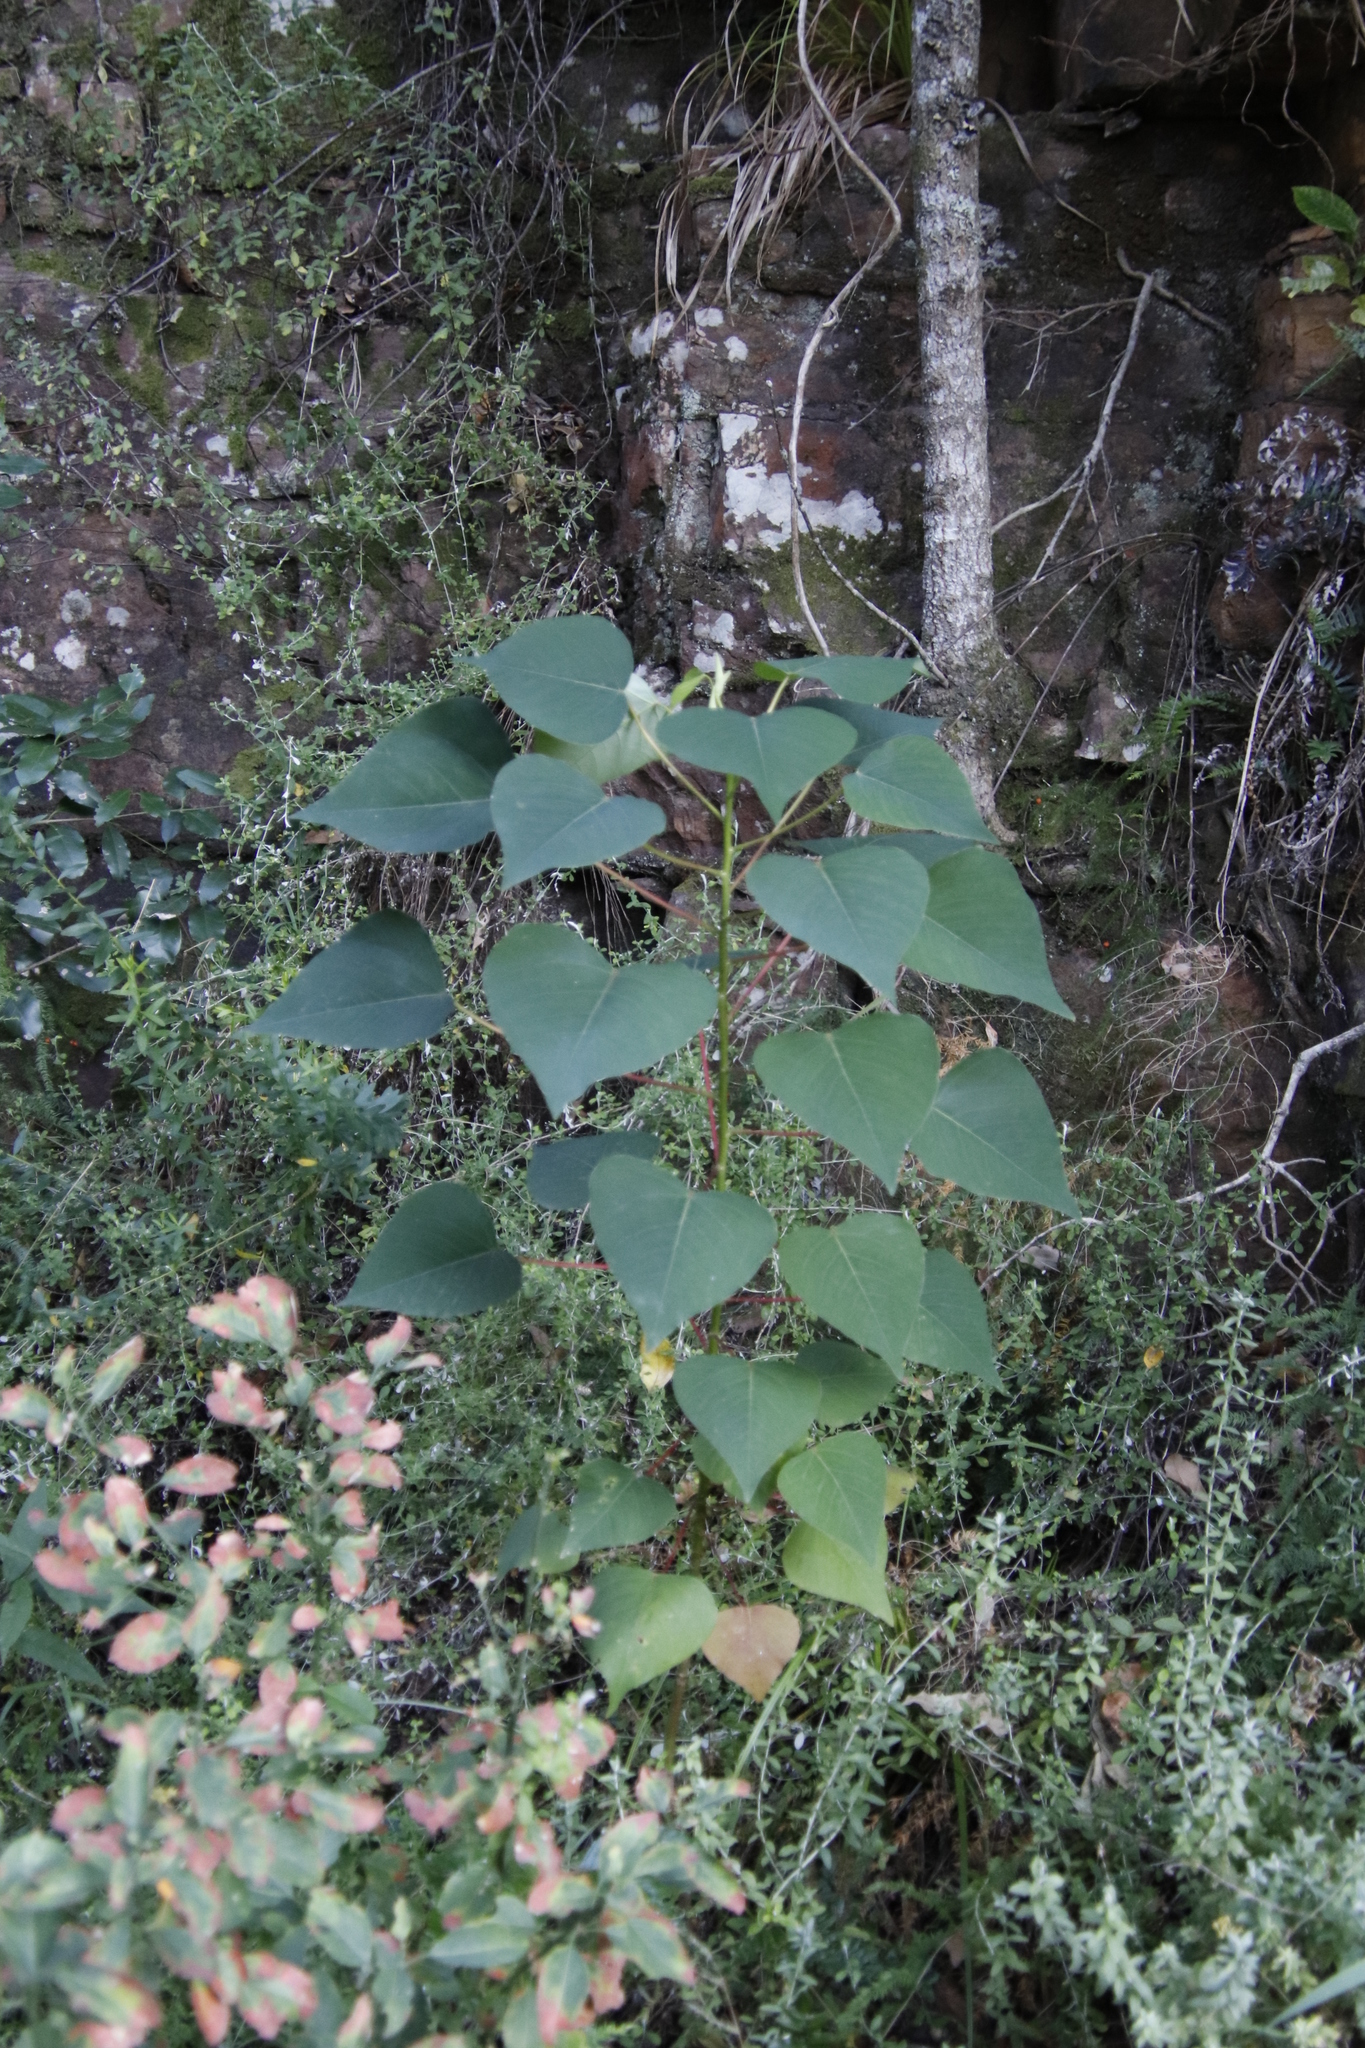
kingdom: Plantae
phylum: Tracheophyta
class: Magnoliopsida
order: Malpighiales
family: Euphorbiaceae
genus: Homalanthus
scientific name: Homalanthus populifolius
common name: Queensland poplar
